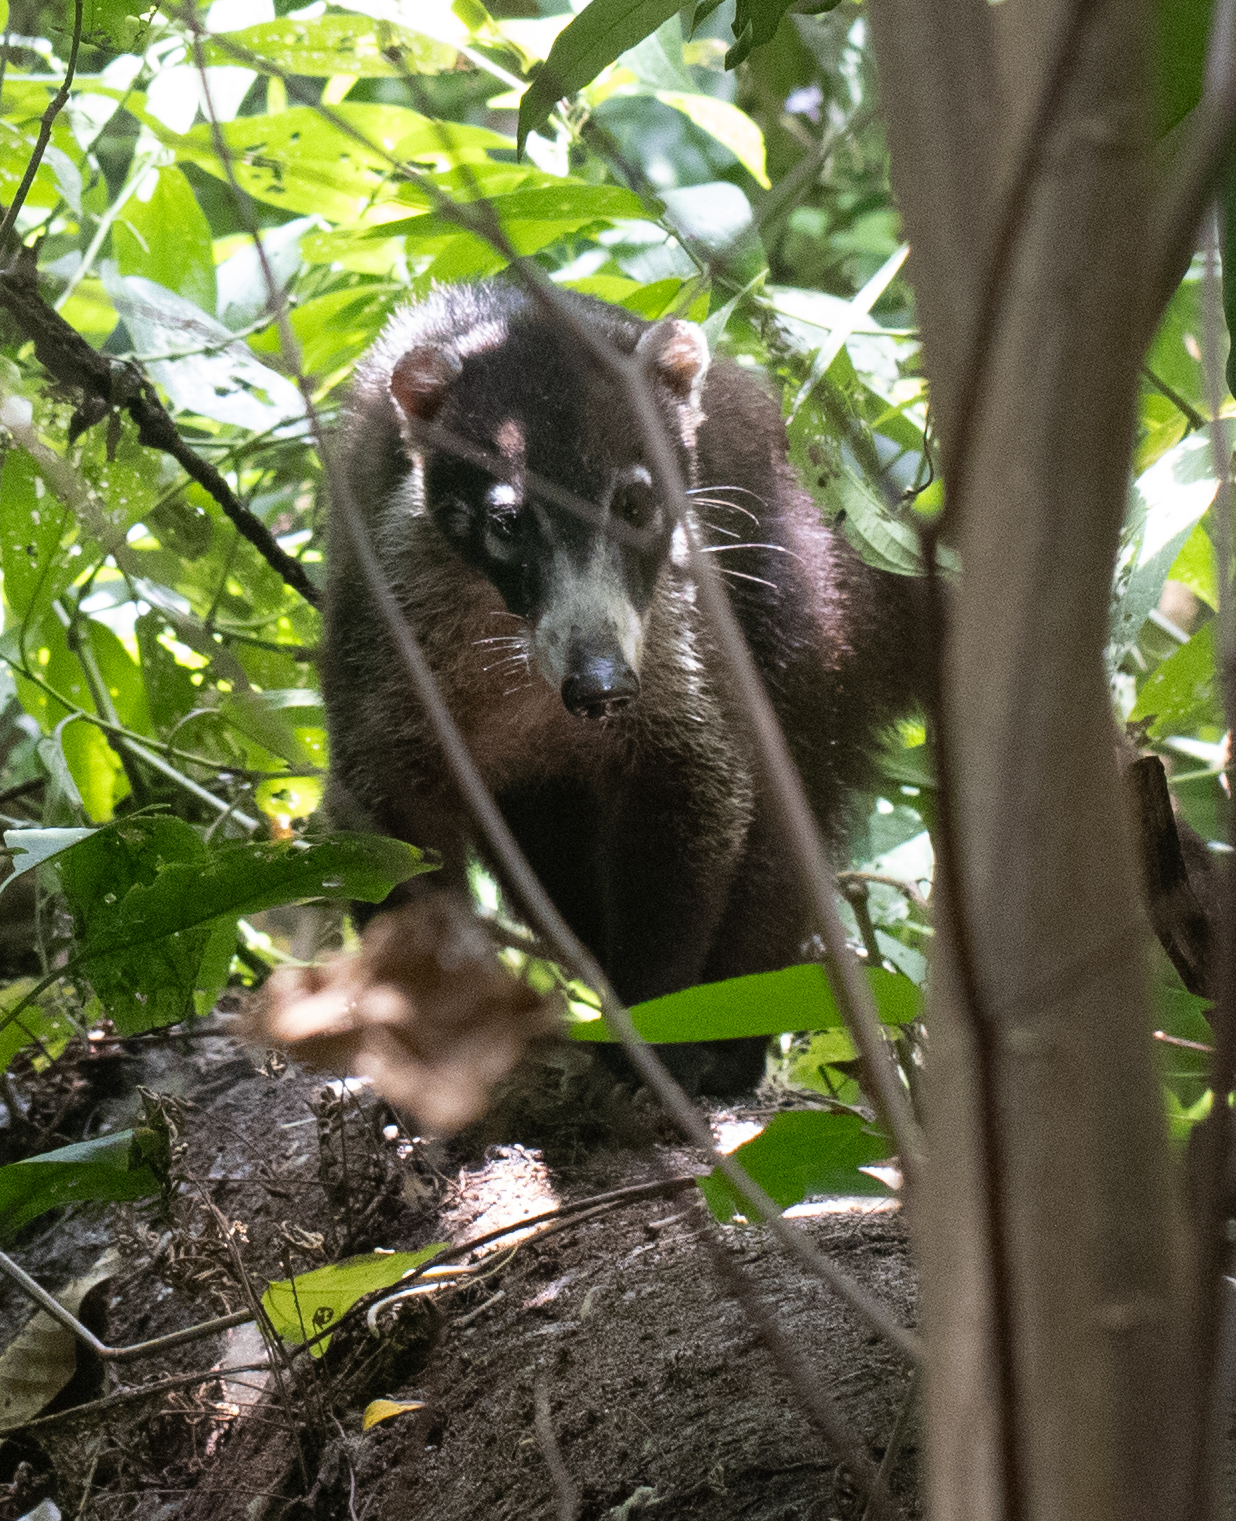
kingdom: Animalia
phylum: Chordata
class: Mammalia
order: Carnivora
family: Procyonidae
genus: Nasua
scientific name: Nasua narica
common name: White-nosed coati
